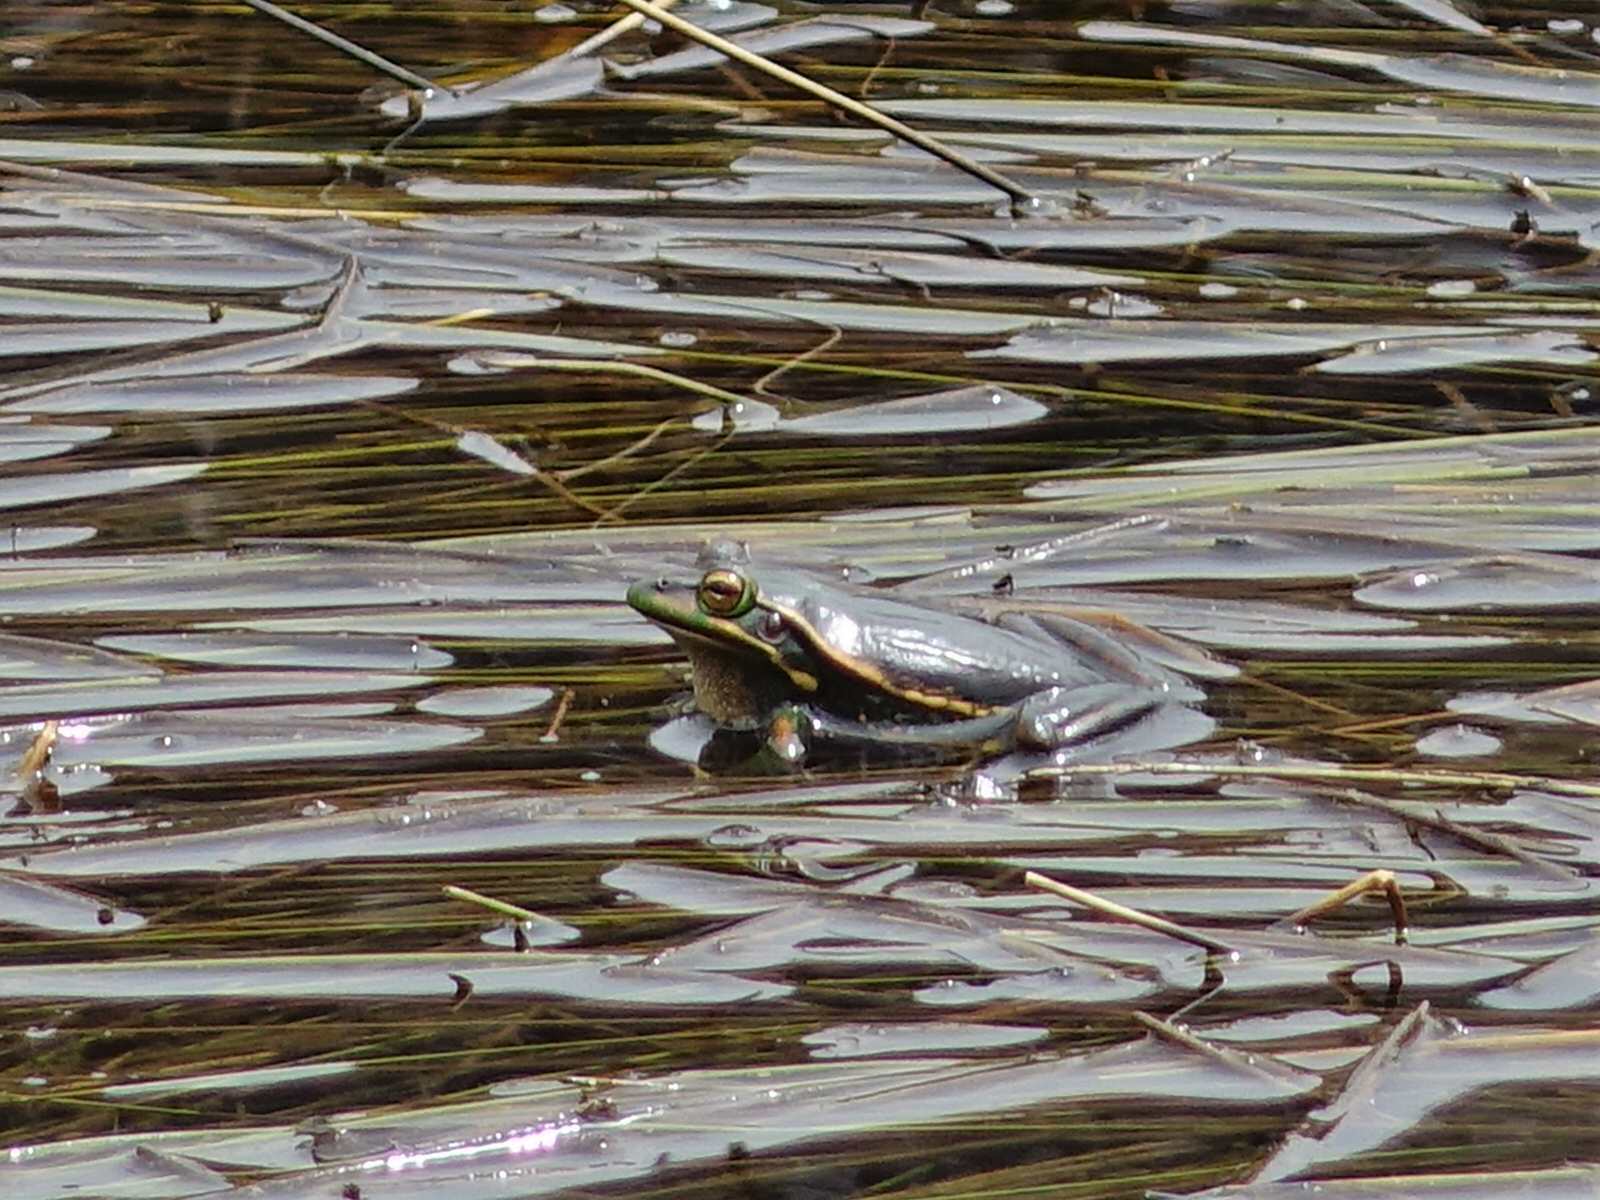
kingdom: Animalia
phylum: Chordata
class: Amphibia
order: Anura
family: Pelodryadidae
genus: Ranoidea
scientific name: Ranoidea aurea
